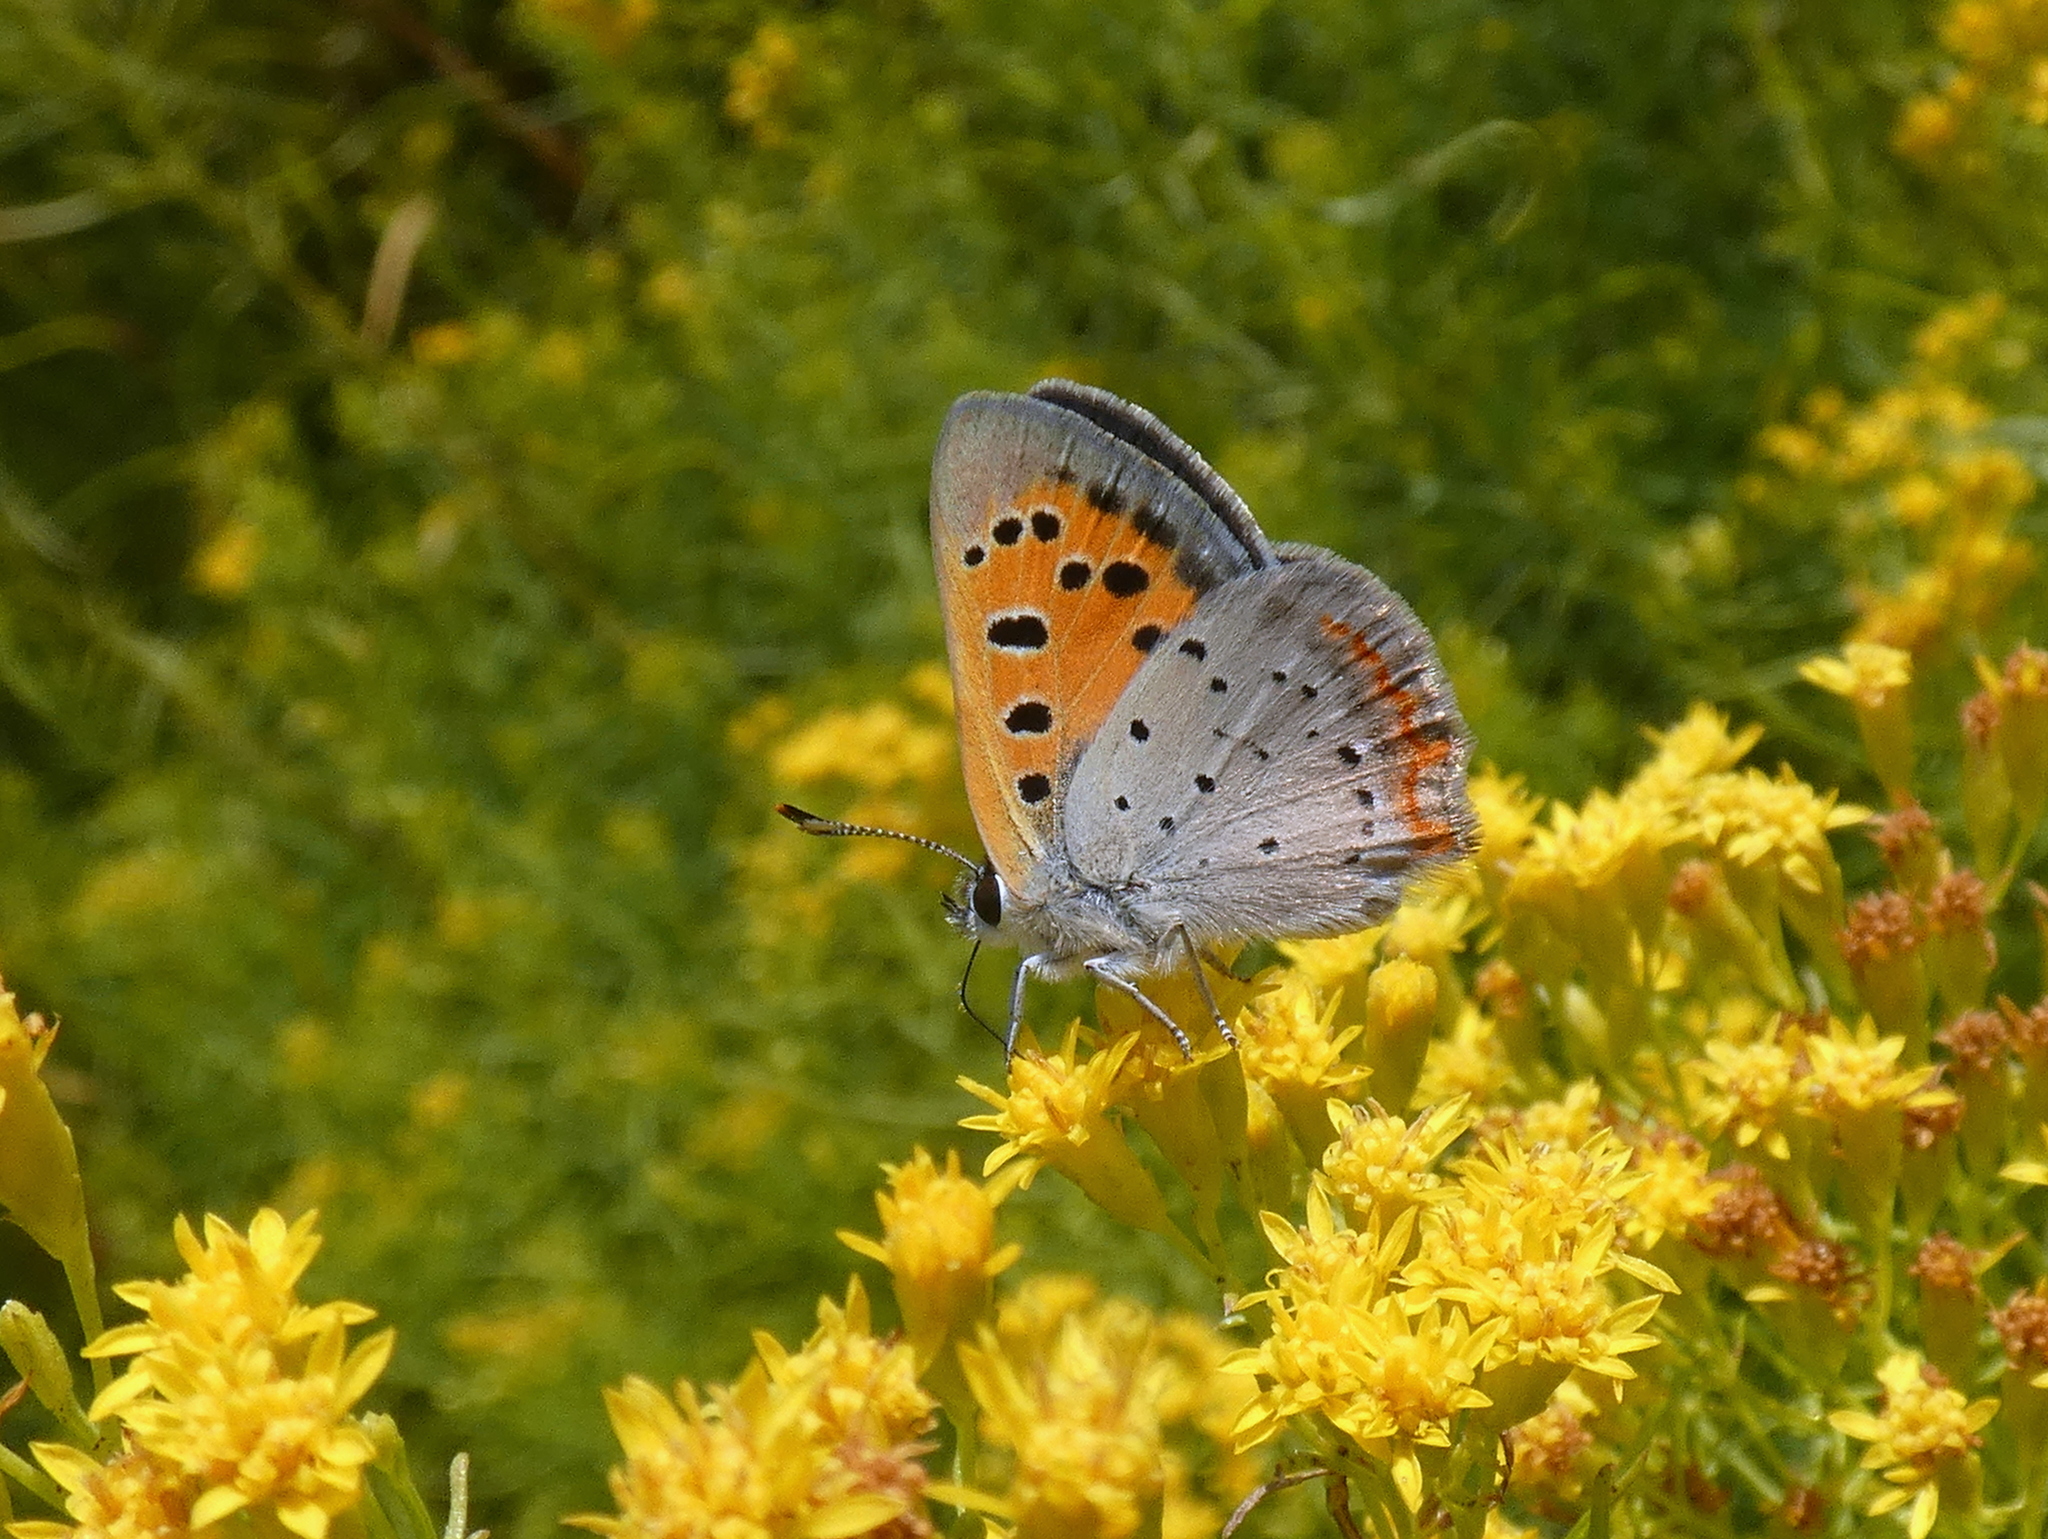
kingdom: Animalia
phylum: Arthropoda
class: Insecta
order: Lepidoptera
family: Lycaenidae
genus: Lycaena
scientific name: Lycaena hypophlaeas
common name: American copper
